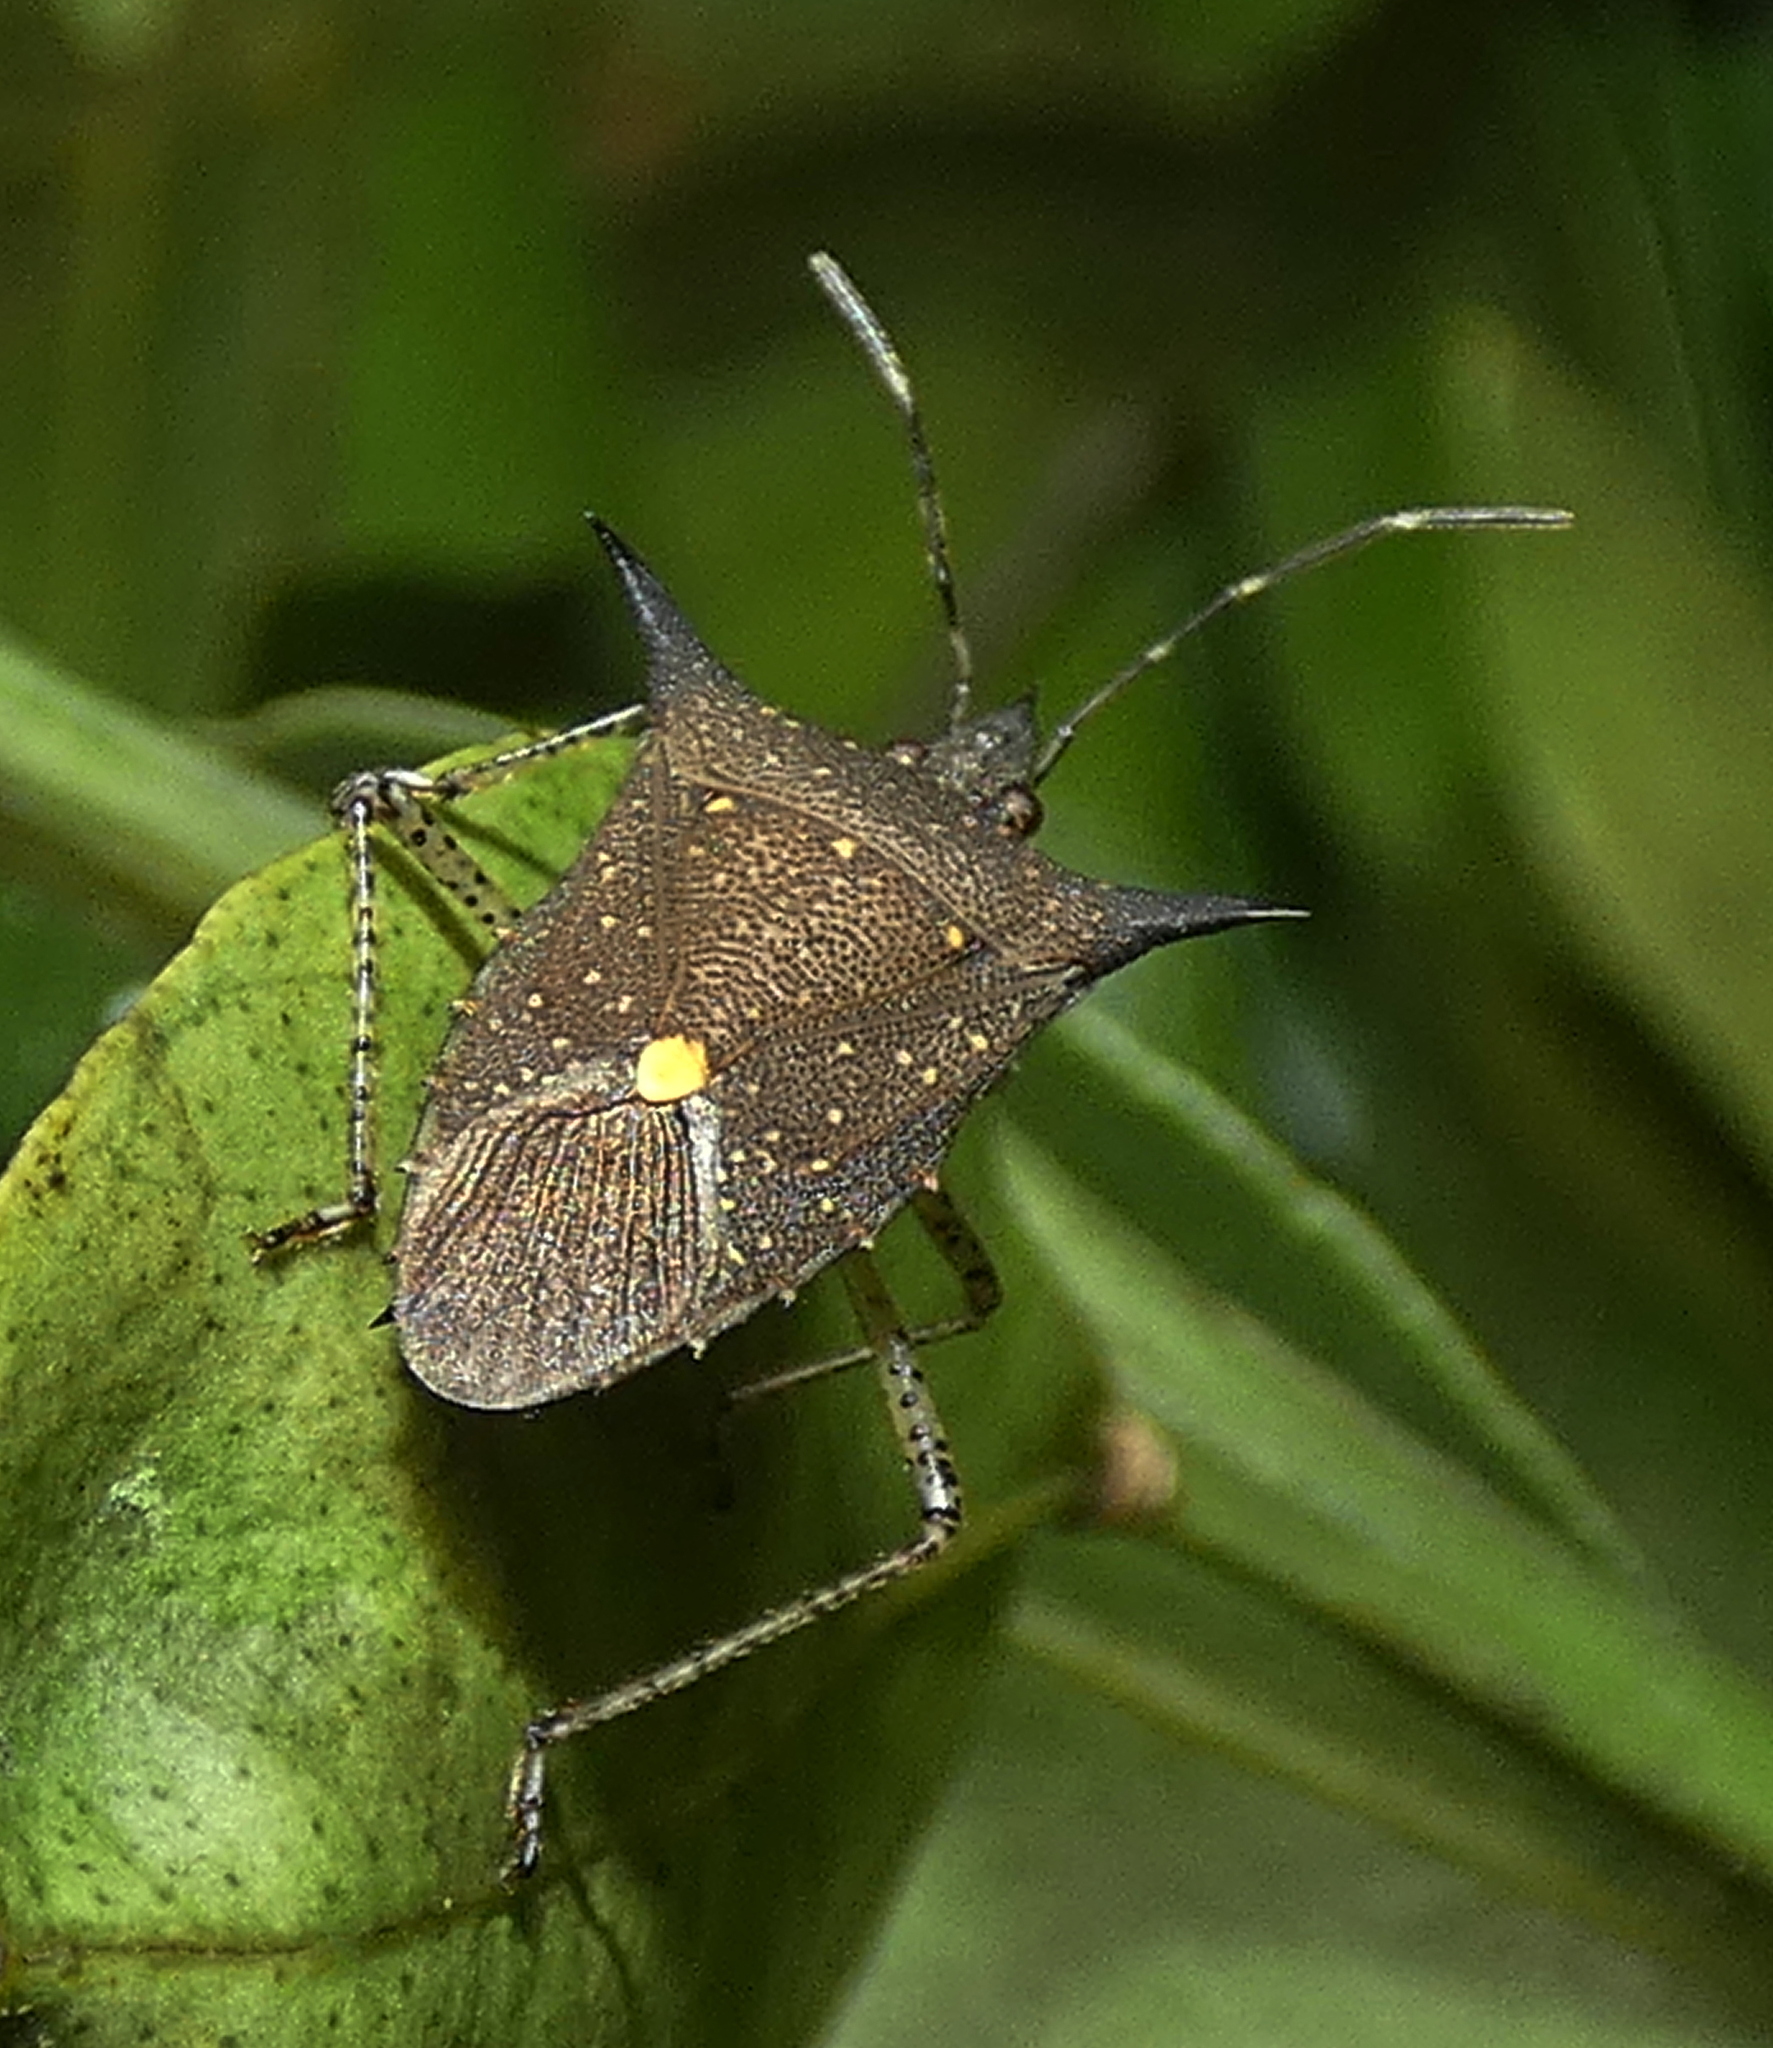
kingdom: Animalia
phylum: Arthropoda
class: Insecta
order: Hemiptera
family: Pentatomidae
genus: Proxys
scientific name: Proxys albopunctulatus
